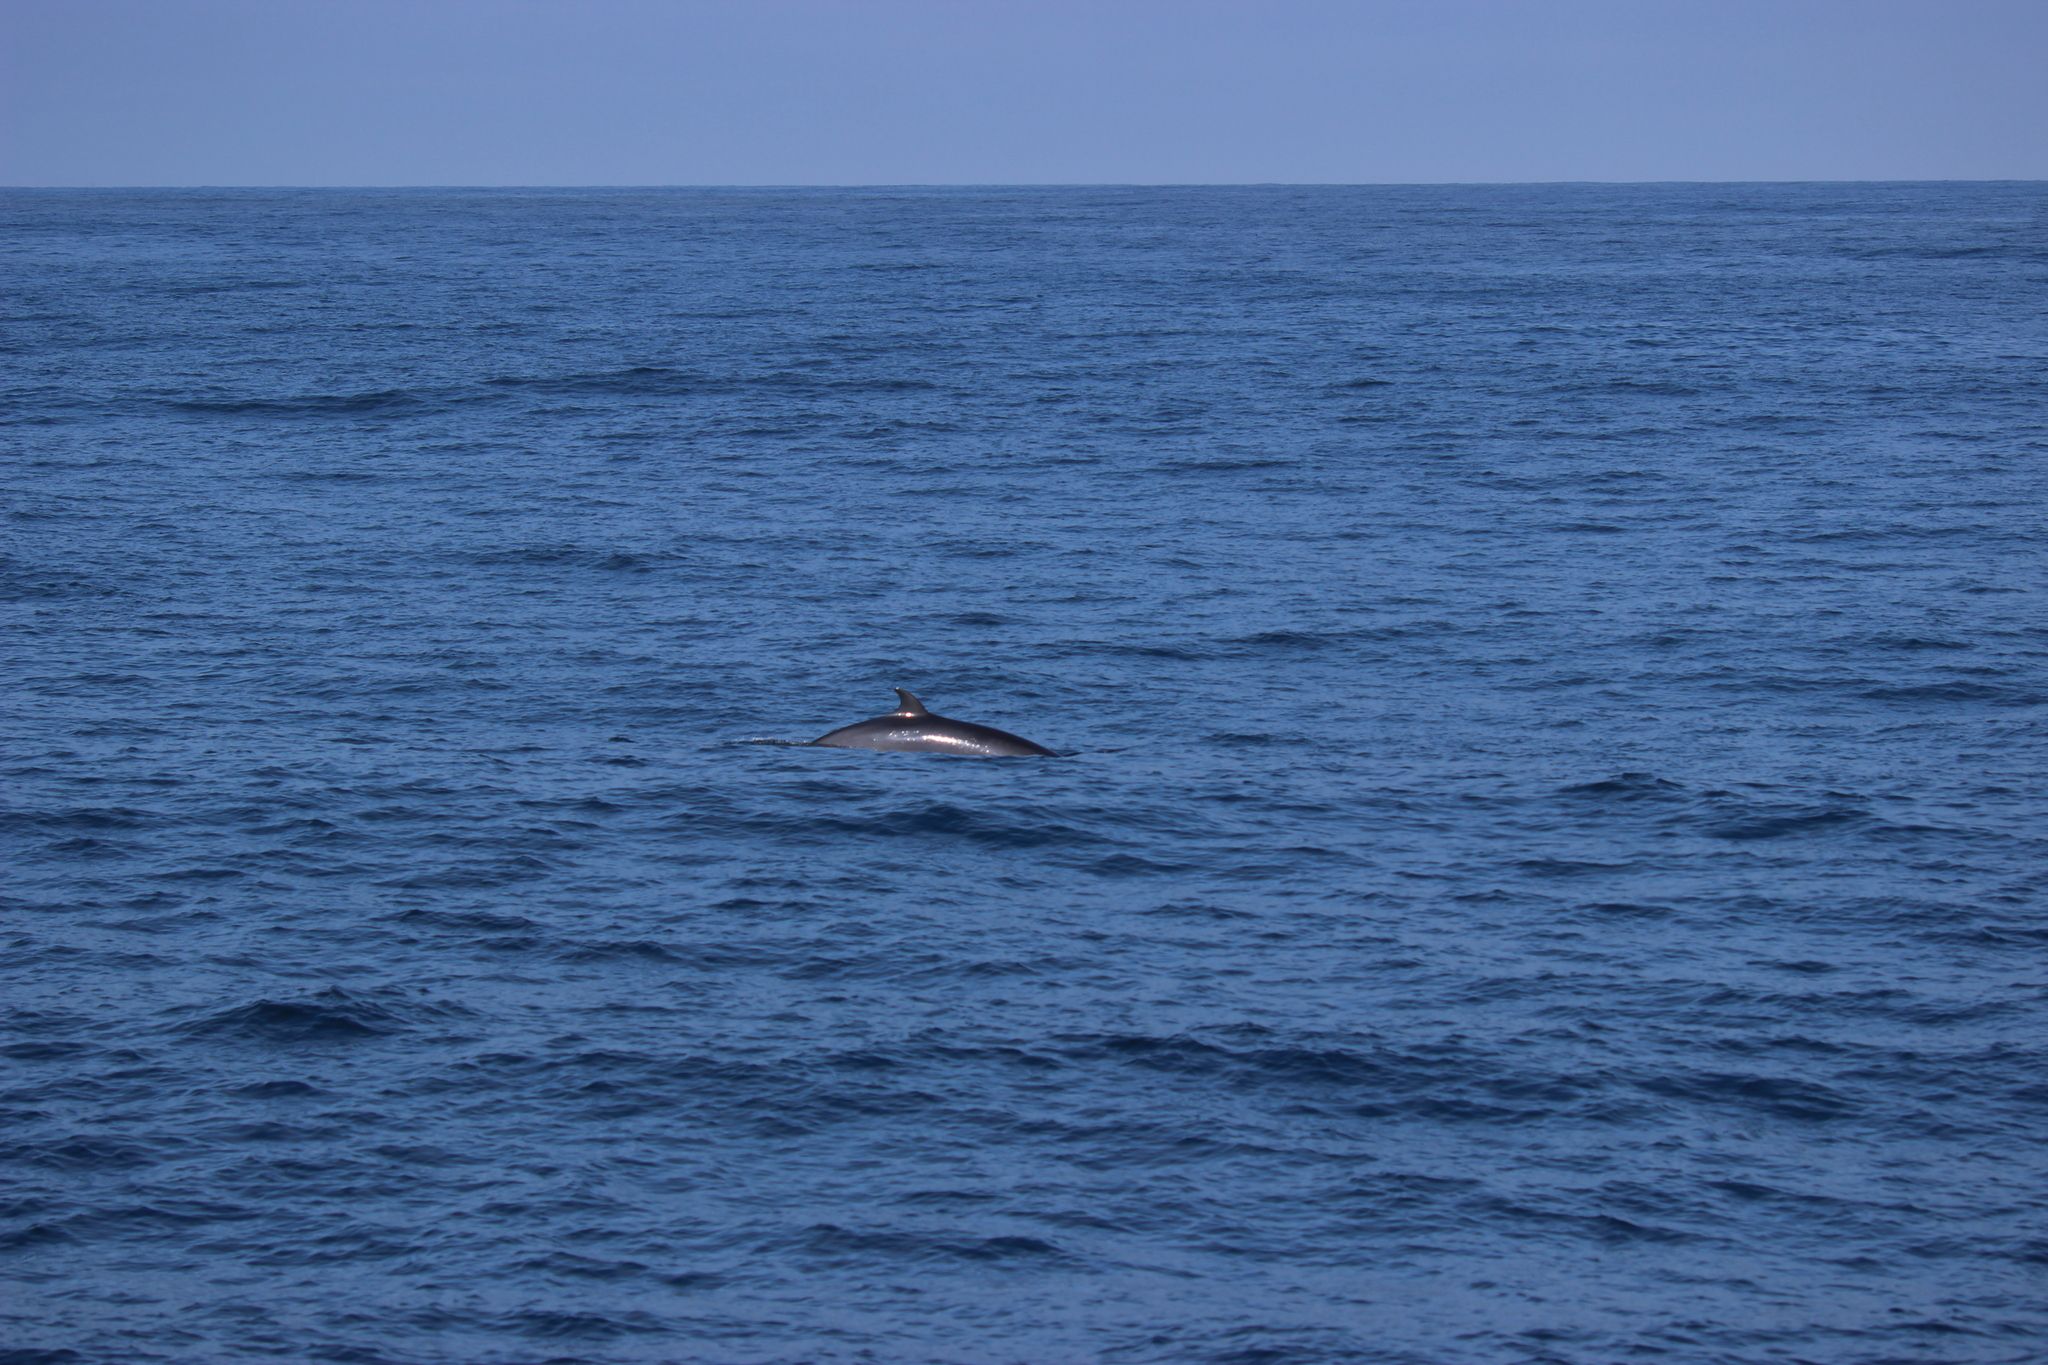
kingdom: Animalia
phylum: Chordata
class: Mammalia
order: Cetacea
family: Balaenopteridae
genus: Balaenoptera
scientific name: Balaenoptera acutorostrata
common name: Common minke whale
